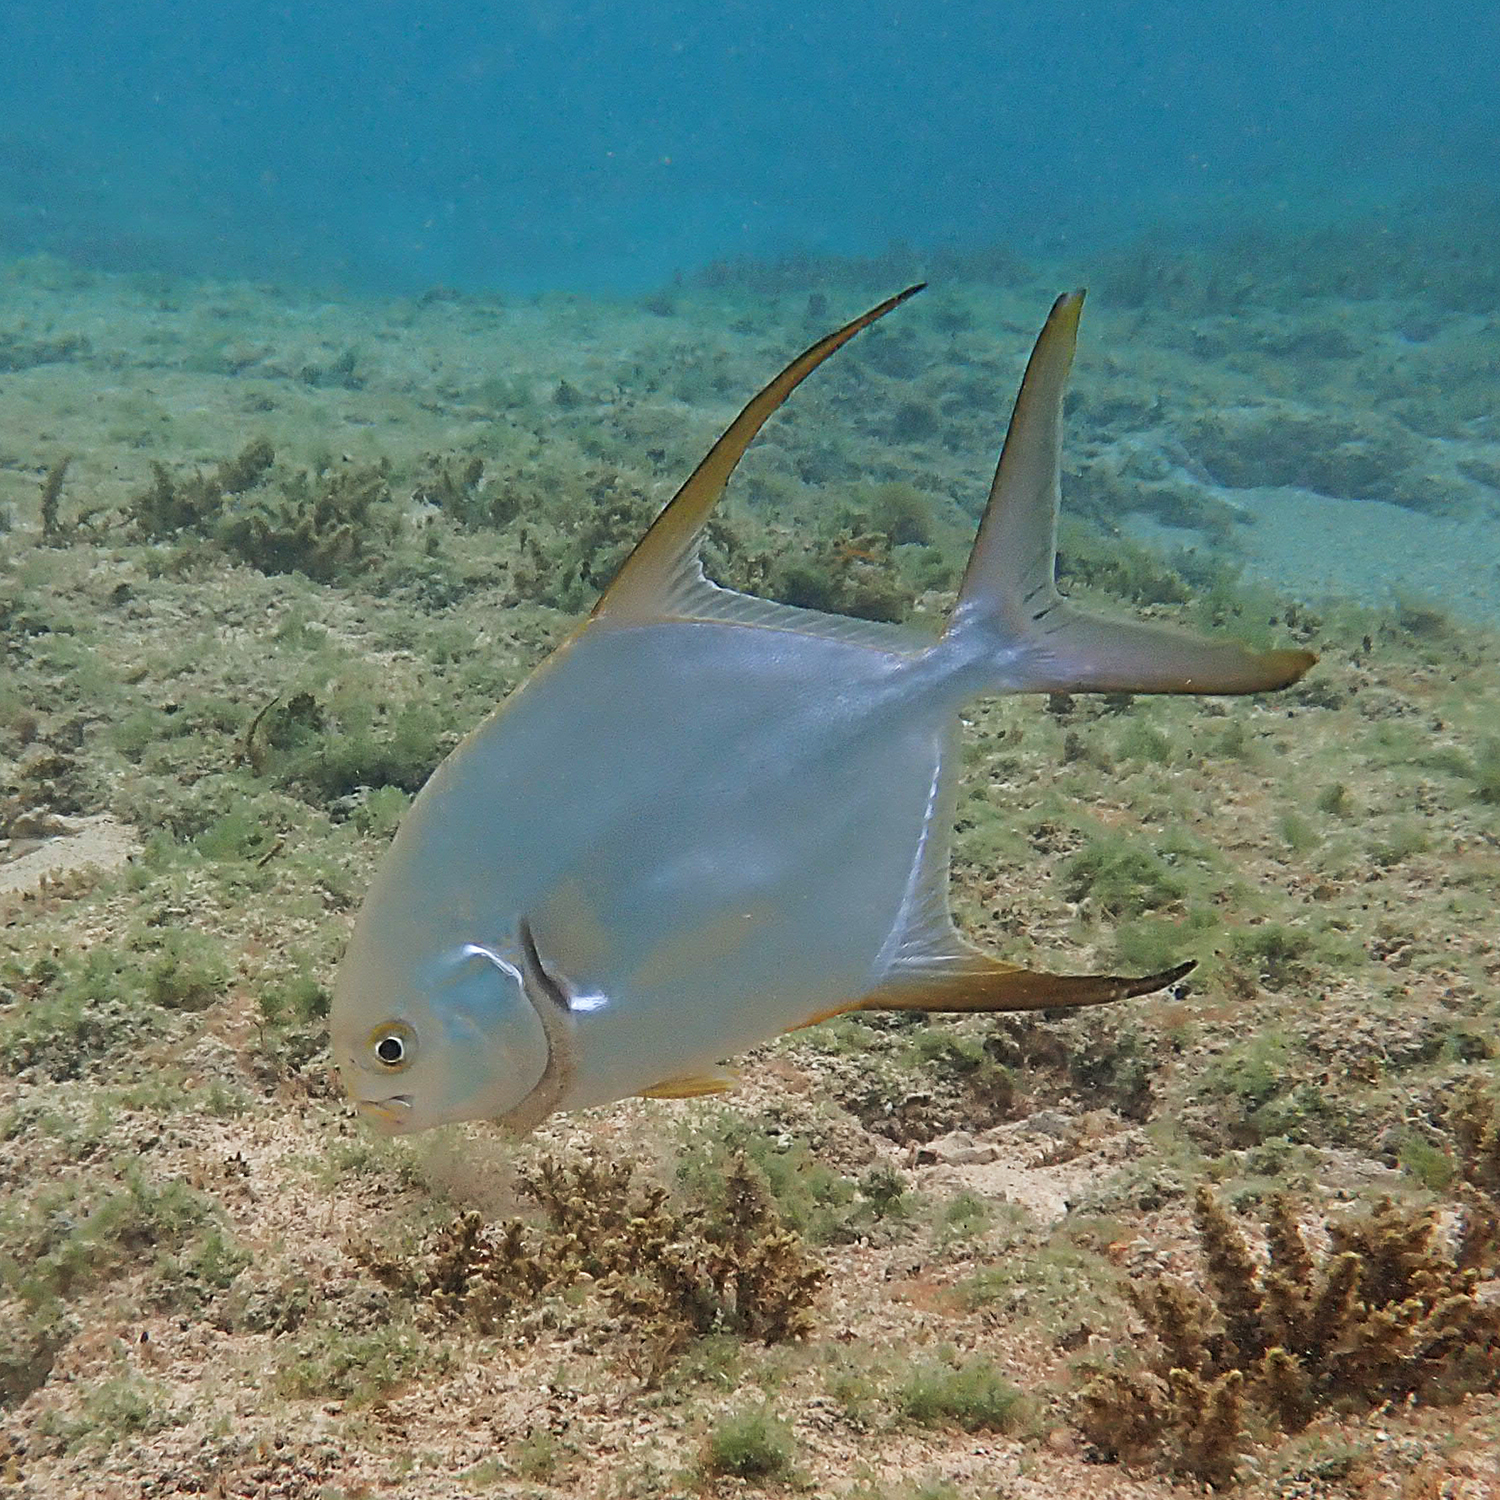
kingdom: Animalia
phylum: Chordata
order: Perciformes
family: Carangidae
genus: Trachinotus
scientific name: Trachinotus blochii
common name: Snubnose pompano
